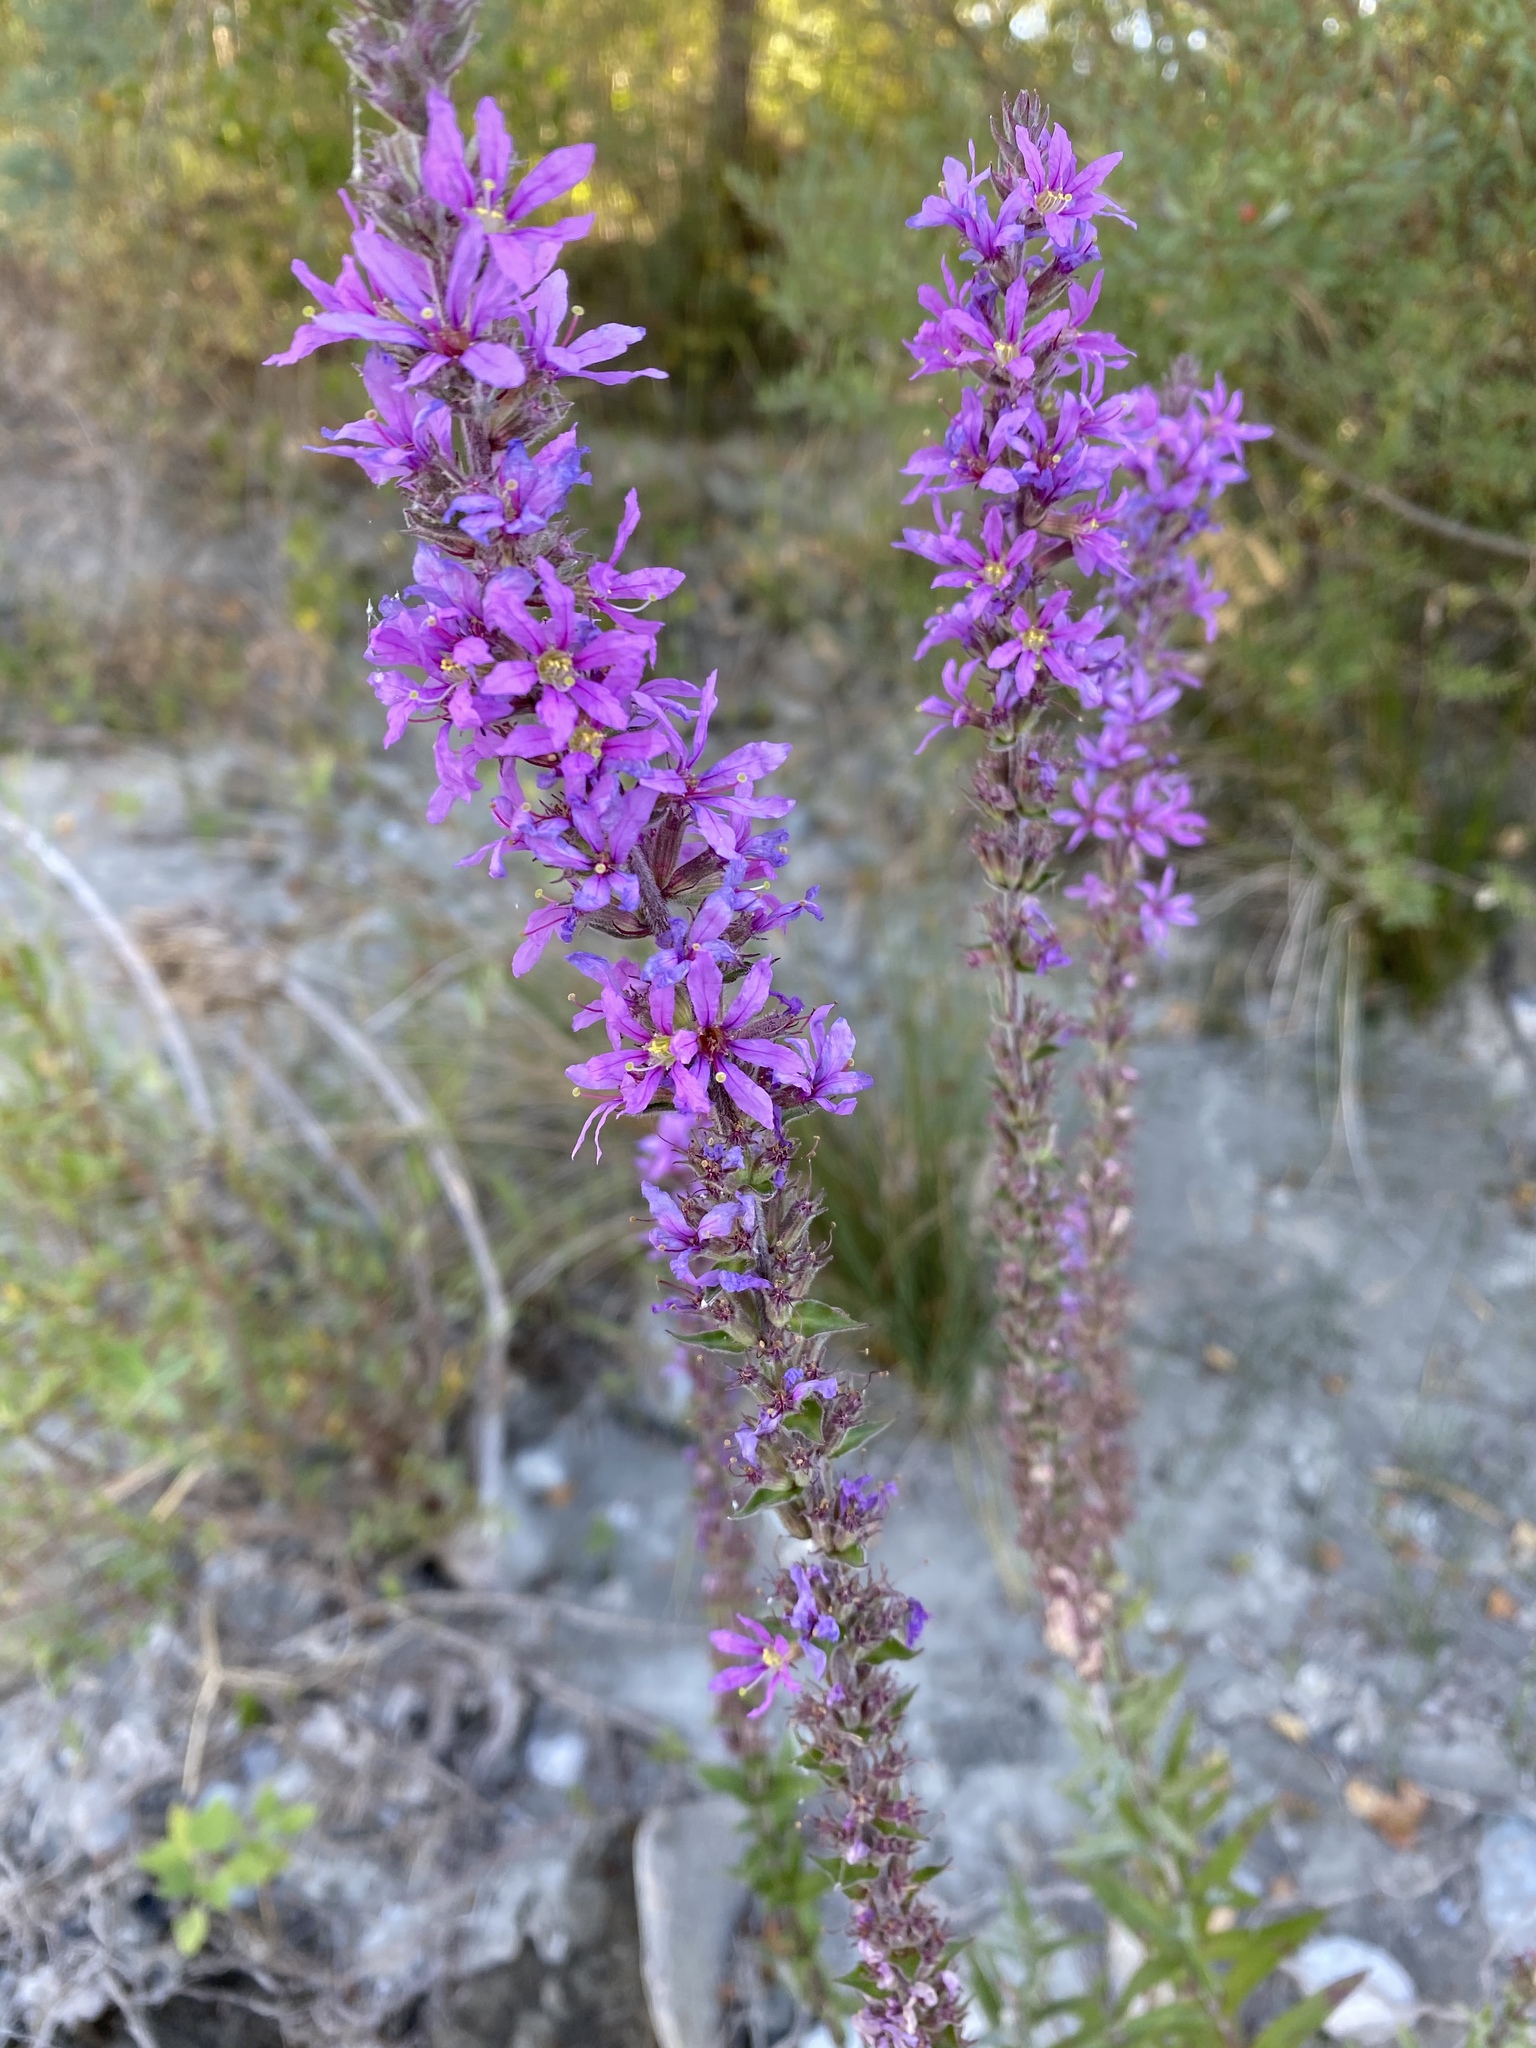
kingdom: Plantae
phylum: Tracheophyta
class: Magnoliopsida
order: Myrtales
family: Lythraceae
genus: Lythrum
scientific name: Lythrum salicaria
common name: Purple loosestrife
